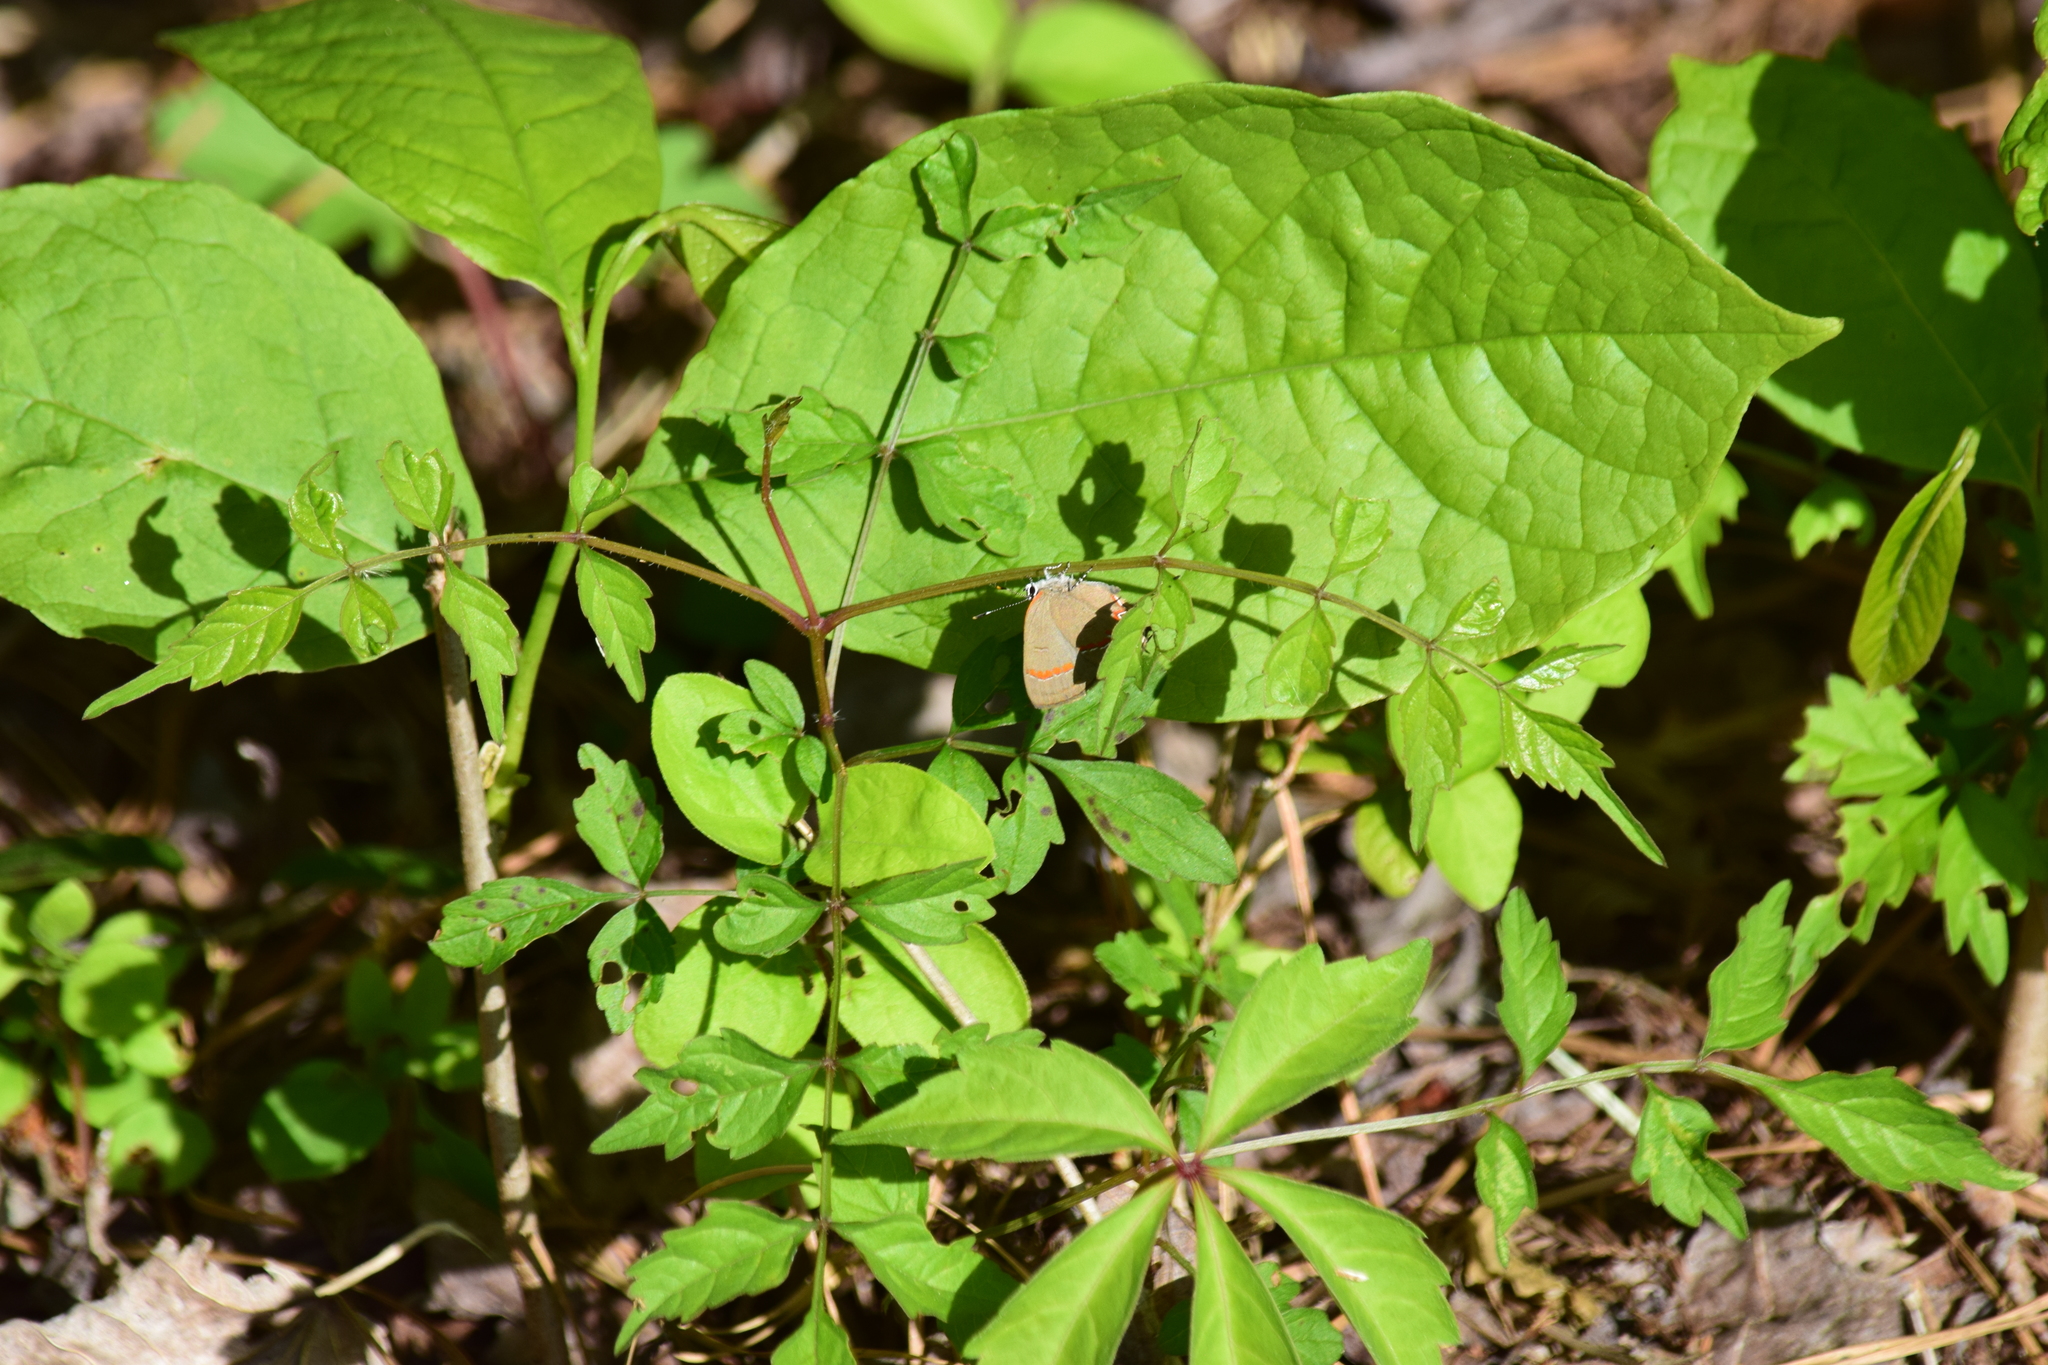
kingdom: Animalia
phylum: Arthropoda
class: Insecta
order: Lepidoptera
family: Lycaenidae
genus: Calycopis
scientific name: Calycopis cecrops
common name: Red-banded hairstreak
